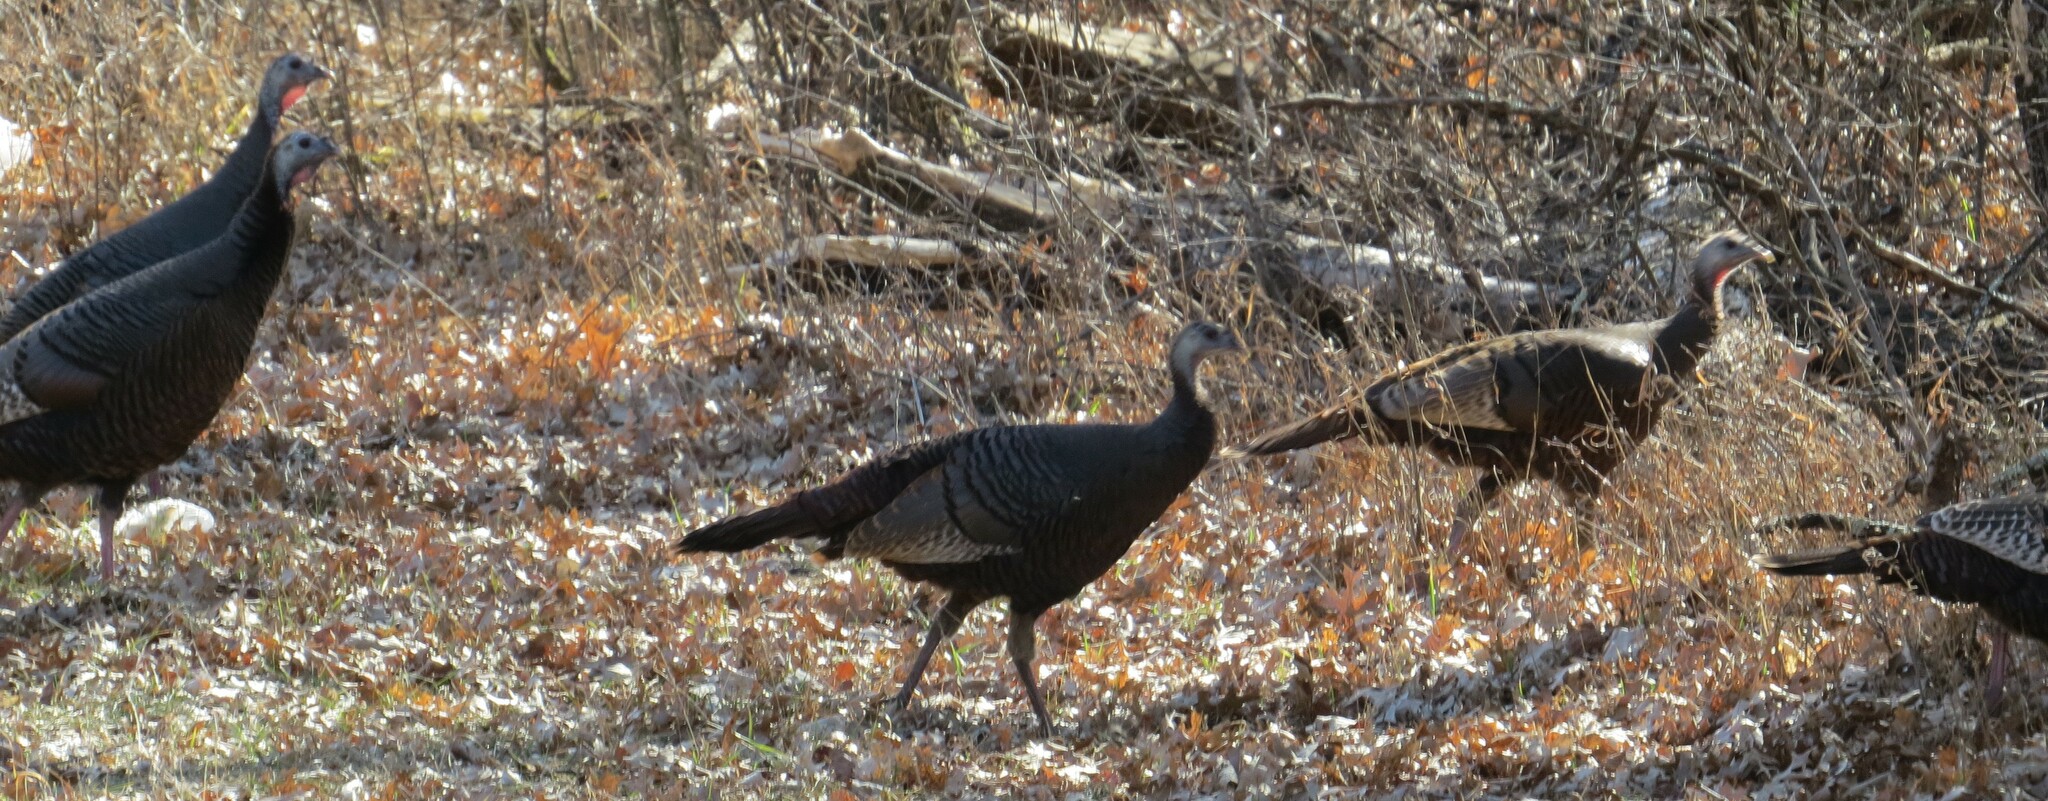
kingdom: Animalia
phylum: Chordata
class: Aves
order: Galliformes
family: Phasianidae
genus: Meleagris
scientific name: Meleagris gallopavo
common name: Wild turkey
